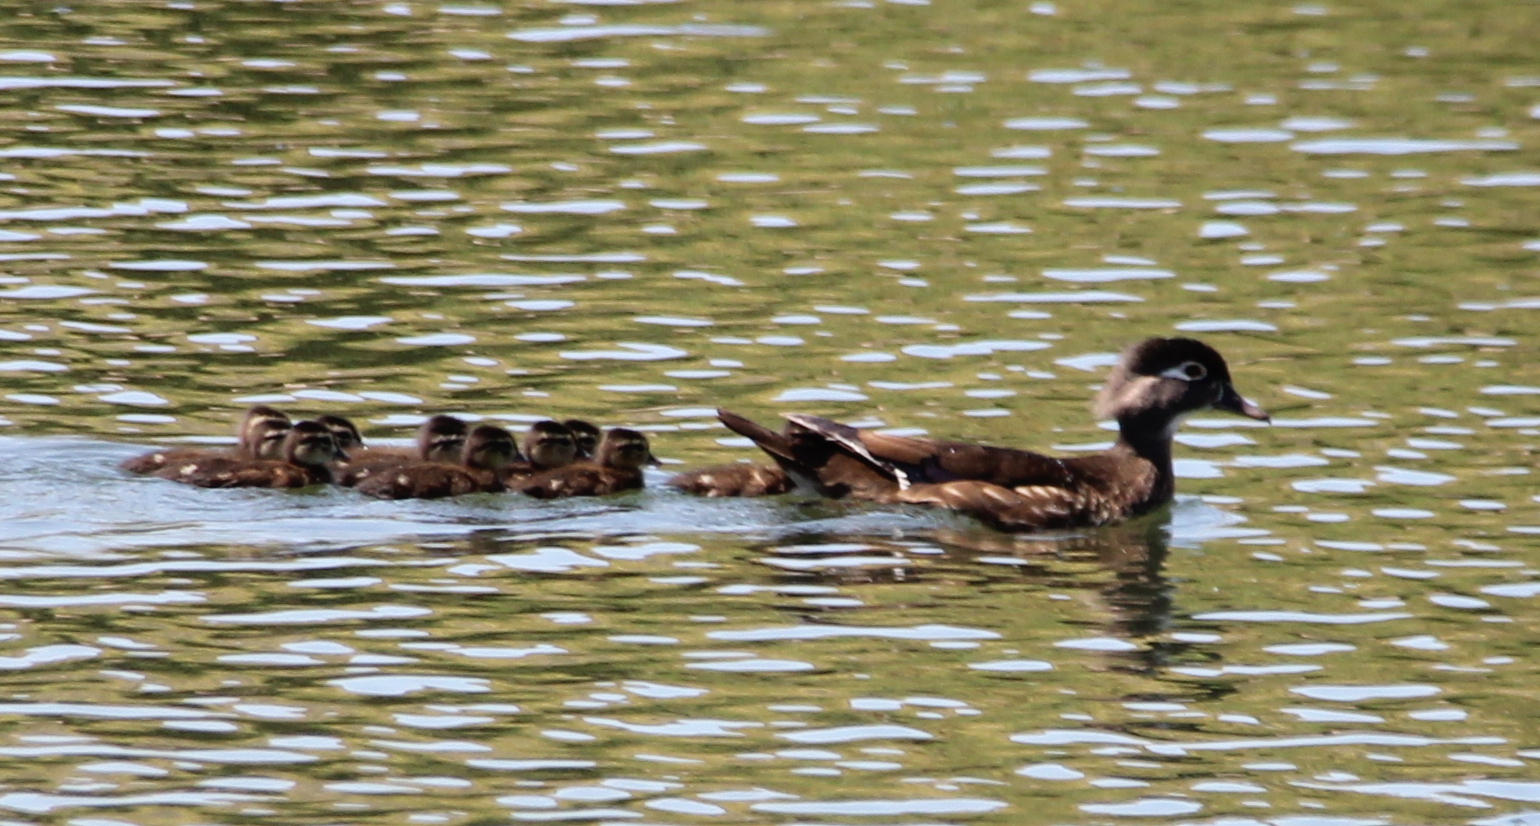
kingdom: Animalia
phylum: Chordata
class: Aves
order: Anseriformes
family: Anatidae
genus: Aix
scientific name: Aix sponsa
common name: Wood duck
